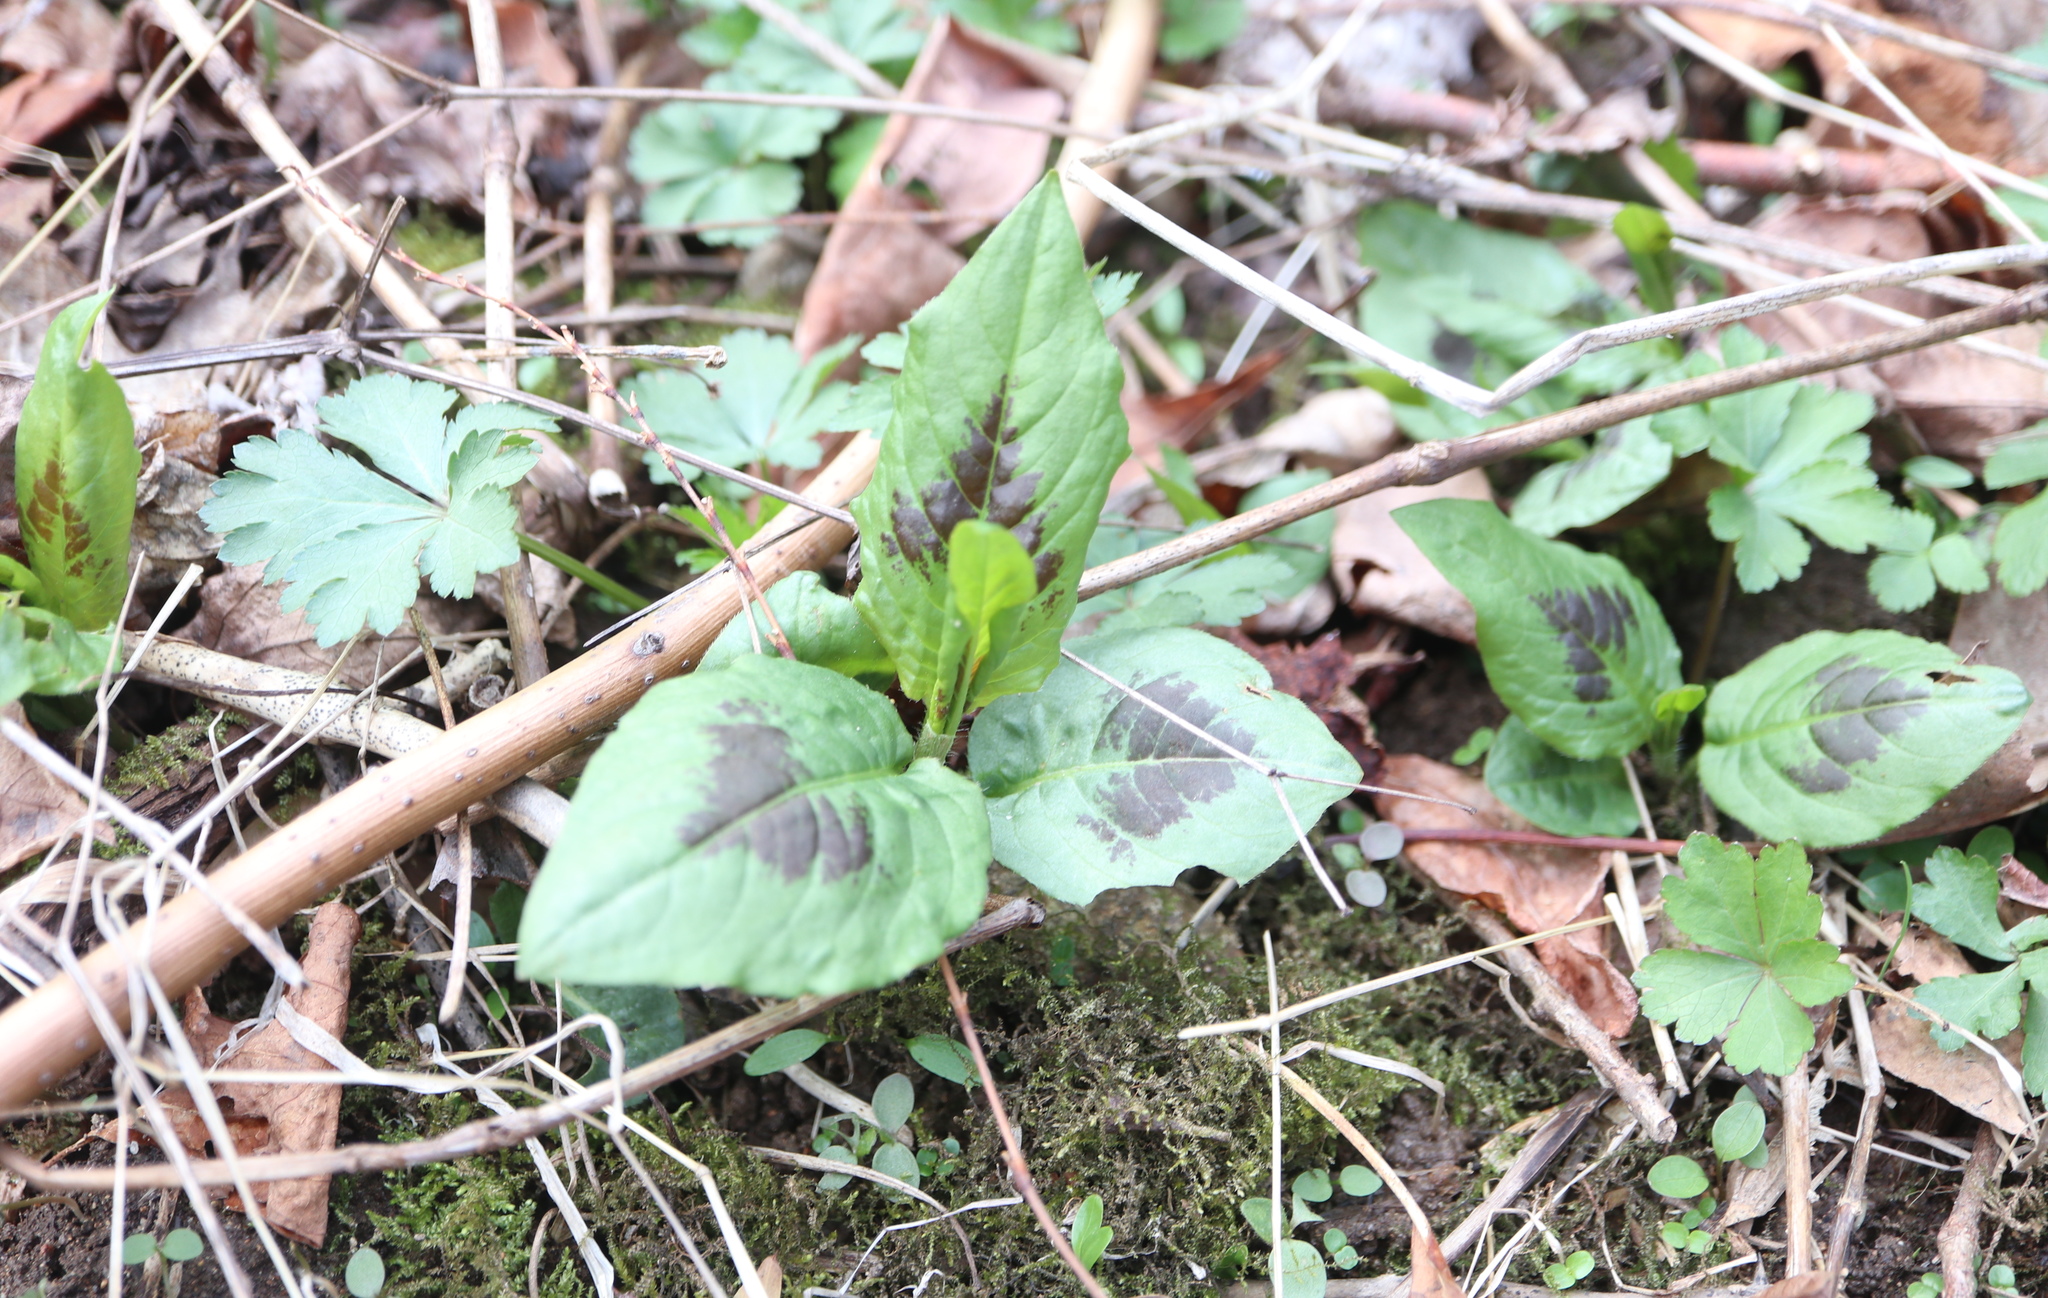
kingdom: Plantae
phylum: Tracheophyta
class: Magnoliopsida
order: Caryophyllales
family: Polygonaceae
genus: Persicaria
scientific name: Persicaria virginiana
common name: Jumpseed
